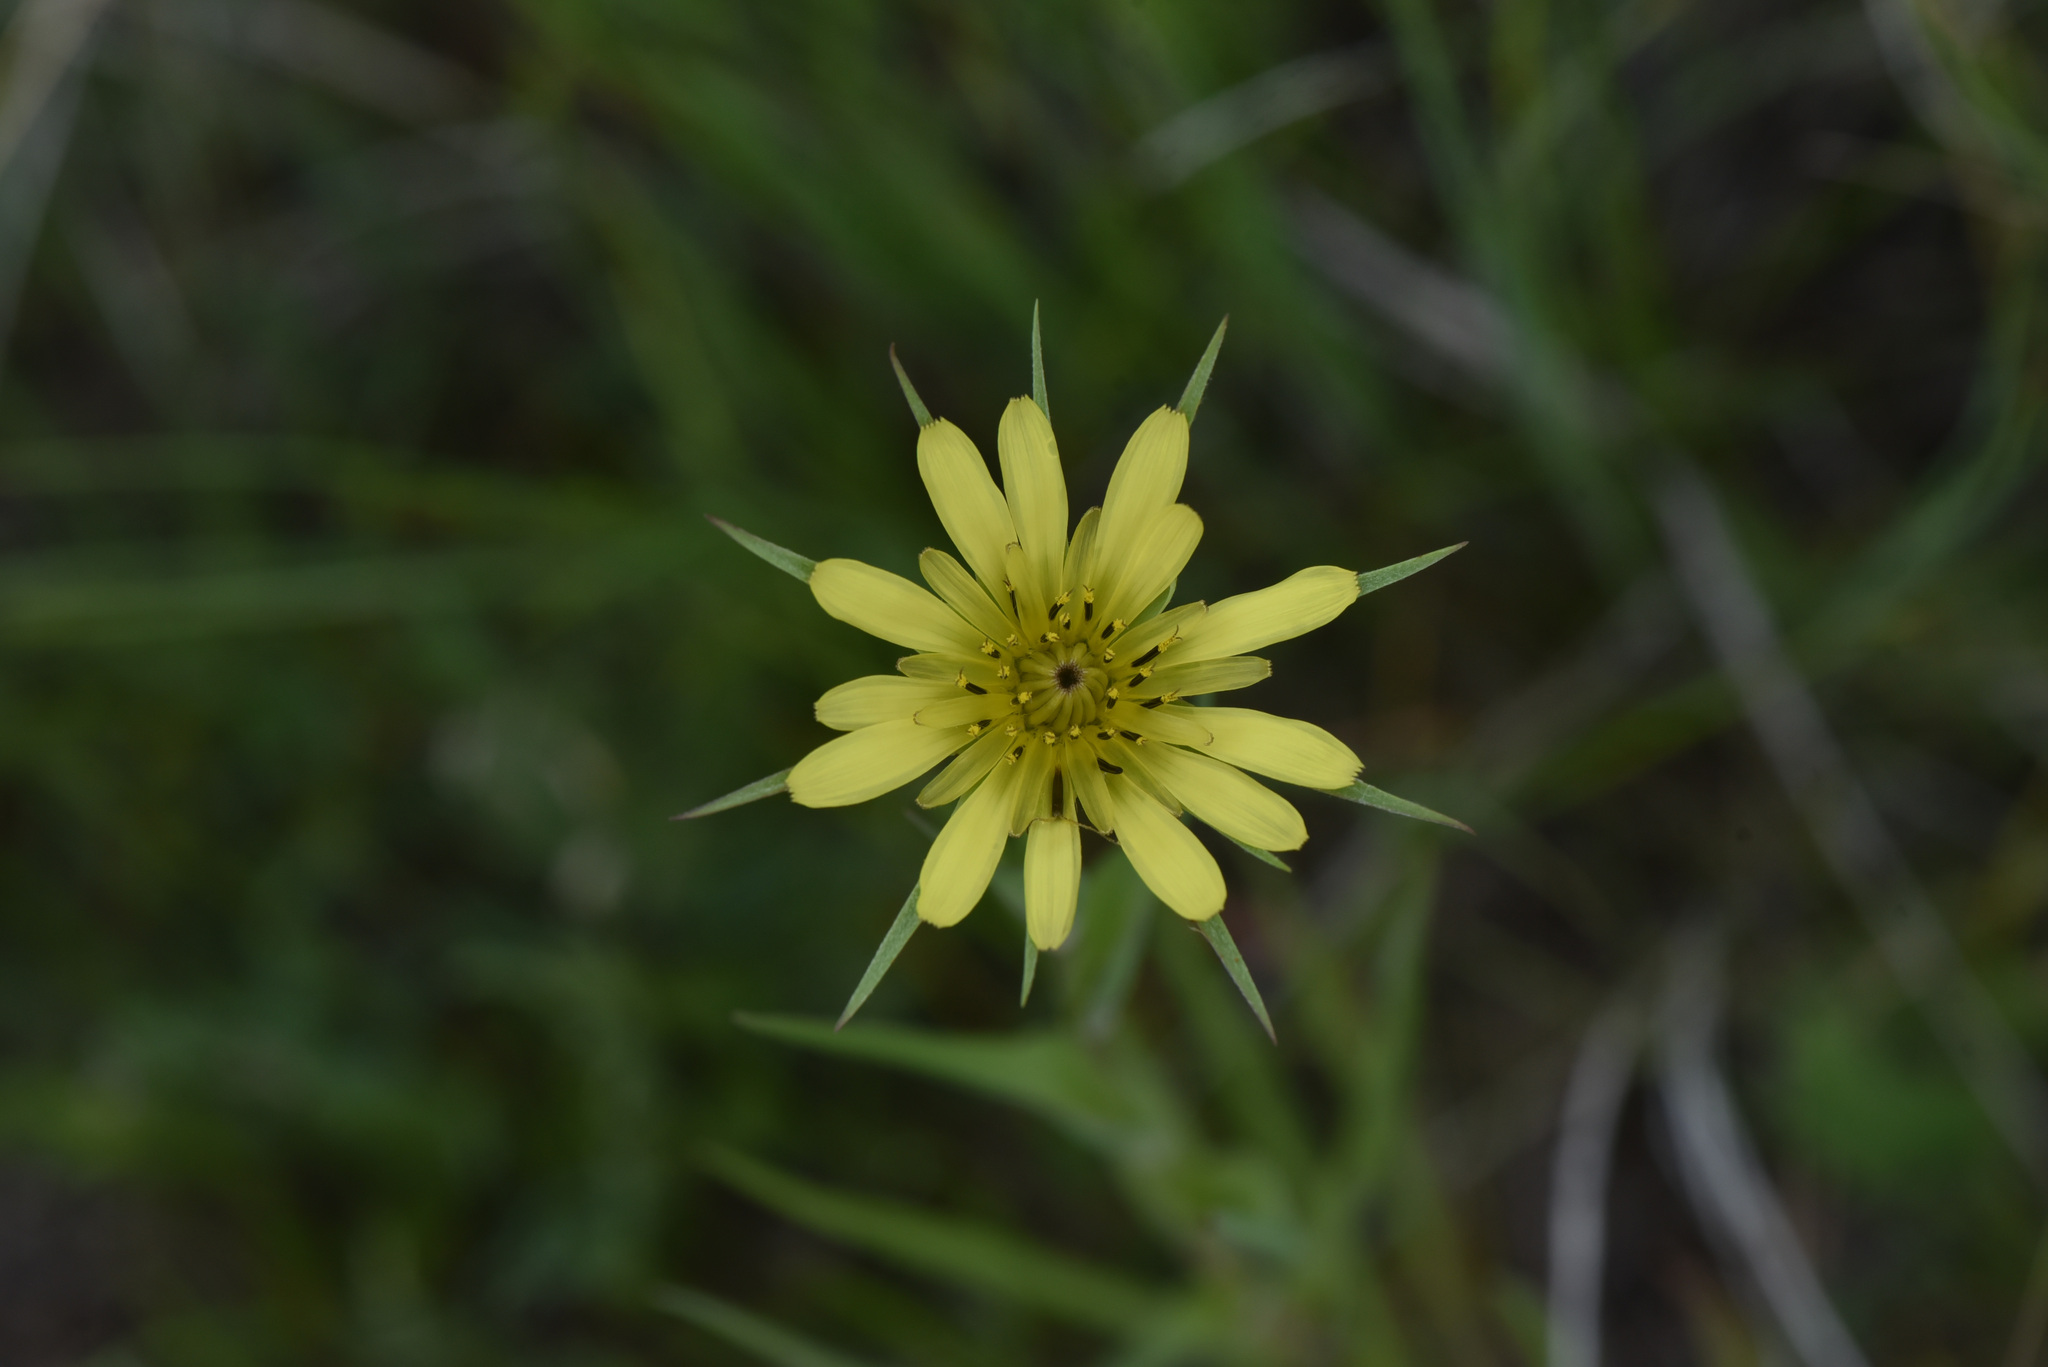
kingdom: Plantae
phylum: Tracheophyta
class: Magnoliopsida
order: Asterales
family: Asteraceae
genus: Tragopogon
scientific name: Tragopogon dubius
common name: Yellow salsify
